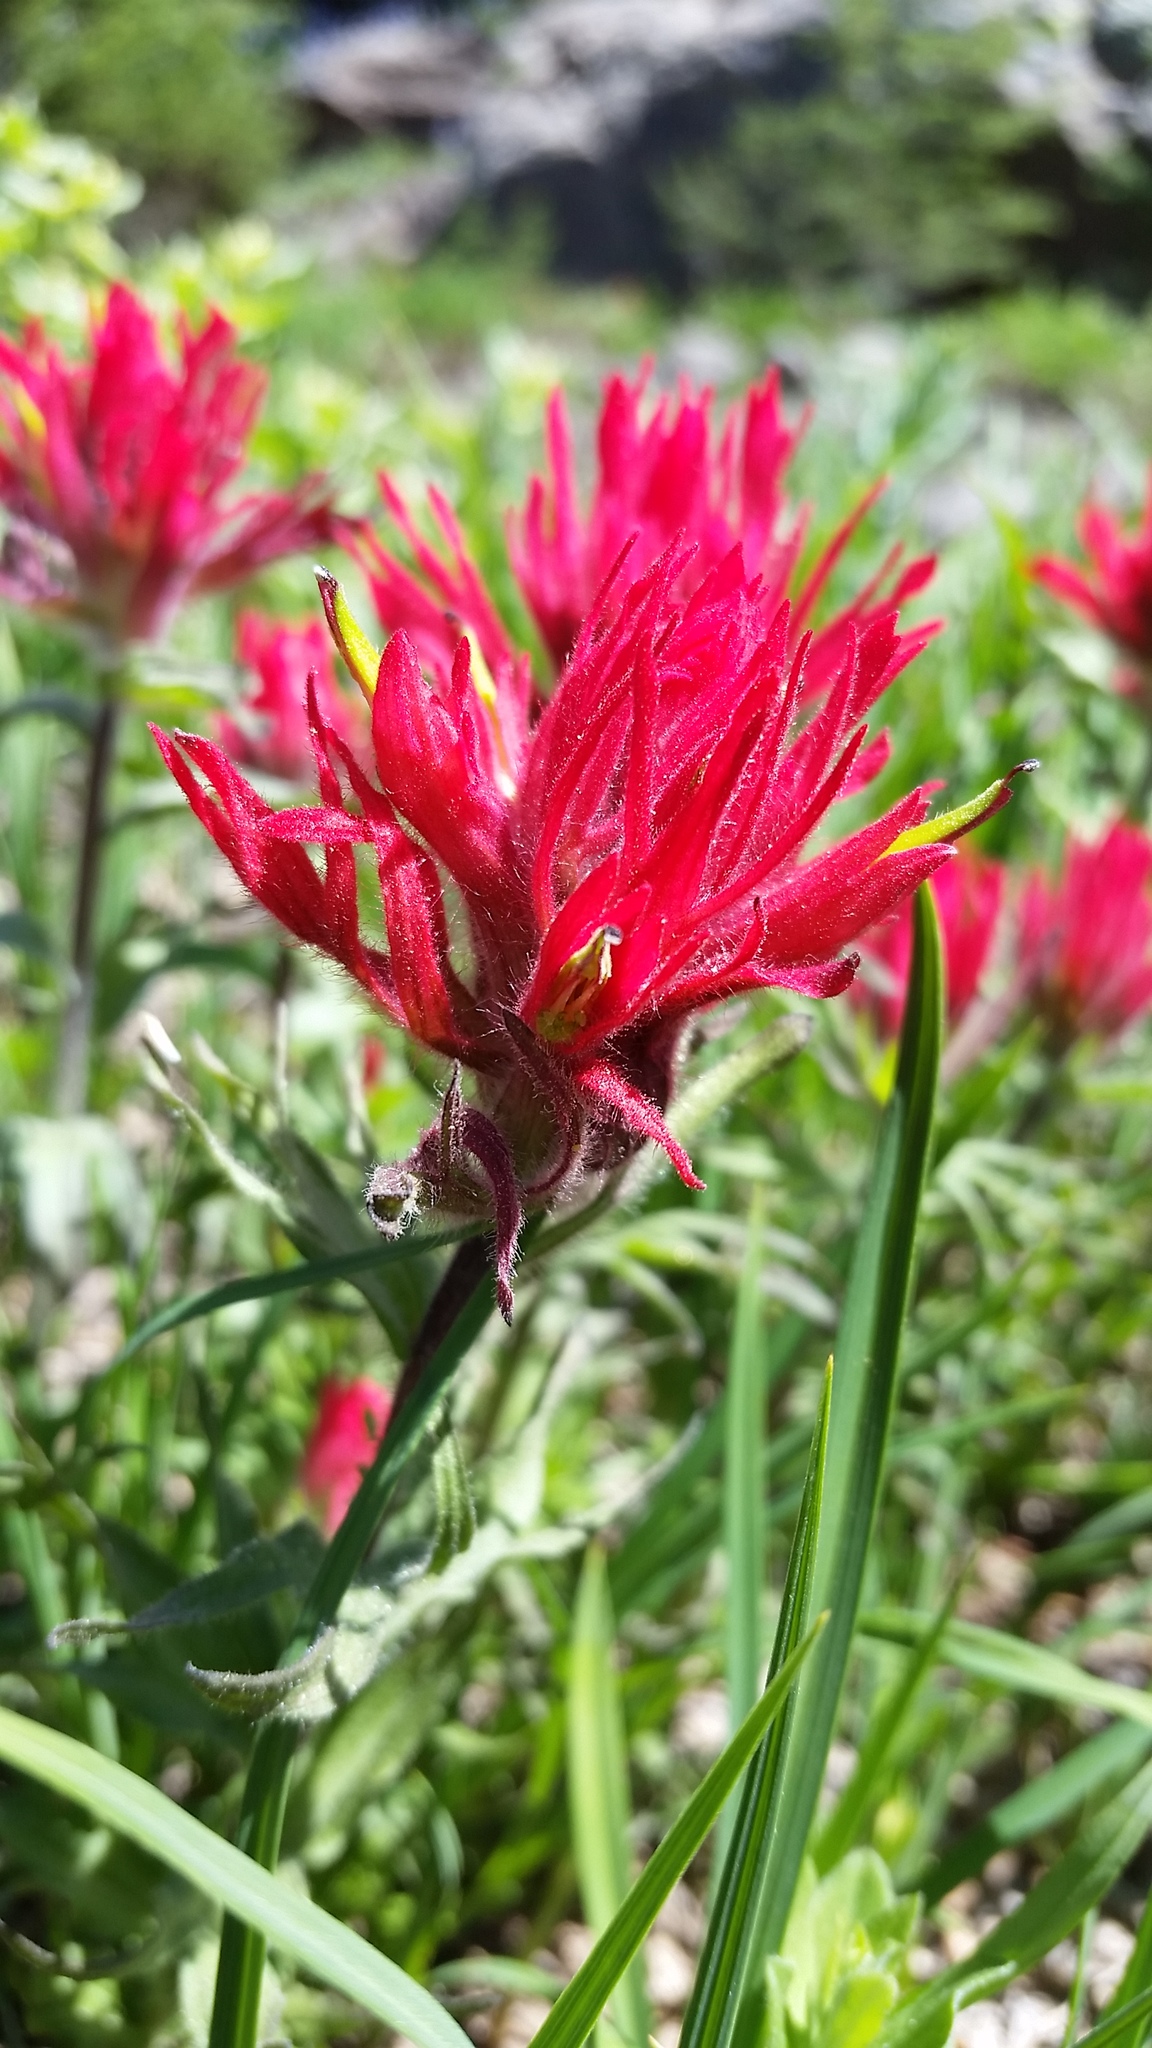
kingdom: Plantae
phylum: Tracheophyta
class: Magnoliopsida
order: Lamiales
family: Orobanchaceae
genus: Castilleja
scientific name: Castilleja parviflora
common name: Mountain paintbrush
